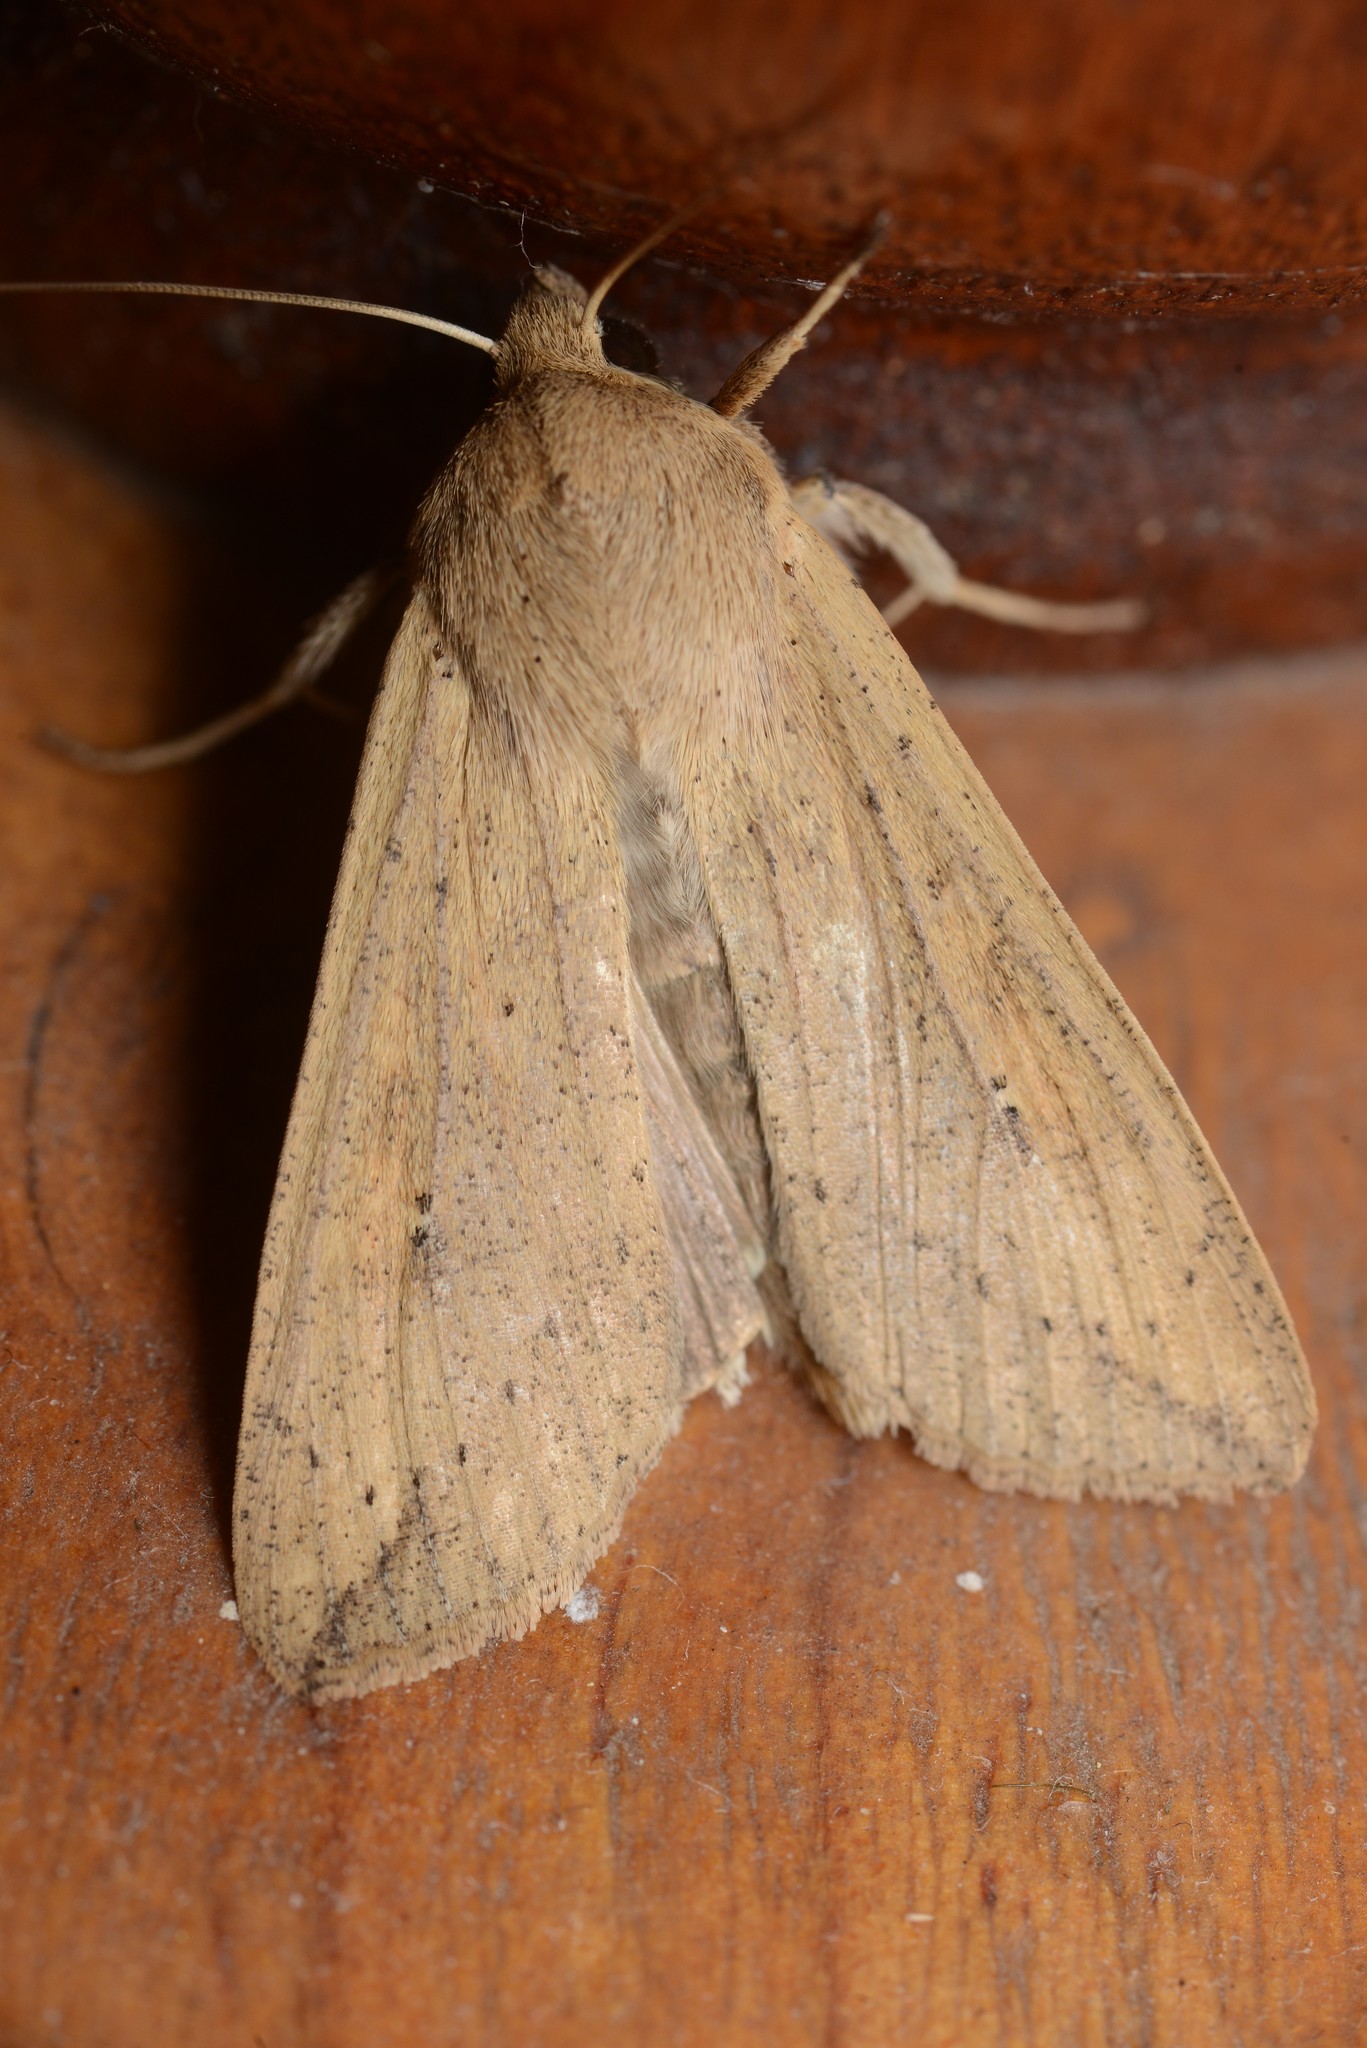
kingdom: Animalia
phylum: Arthropoda
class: Insecta
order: Lepidoptera
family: Noctuidae
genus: Mythimna
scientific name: Mythimna separata
